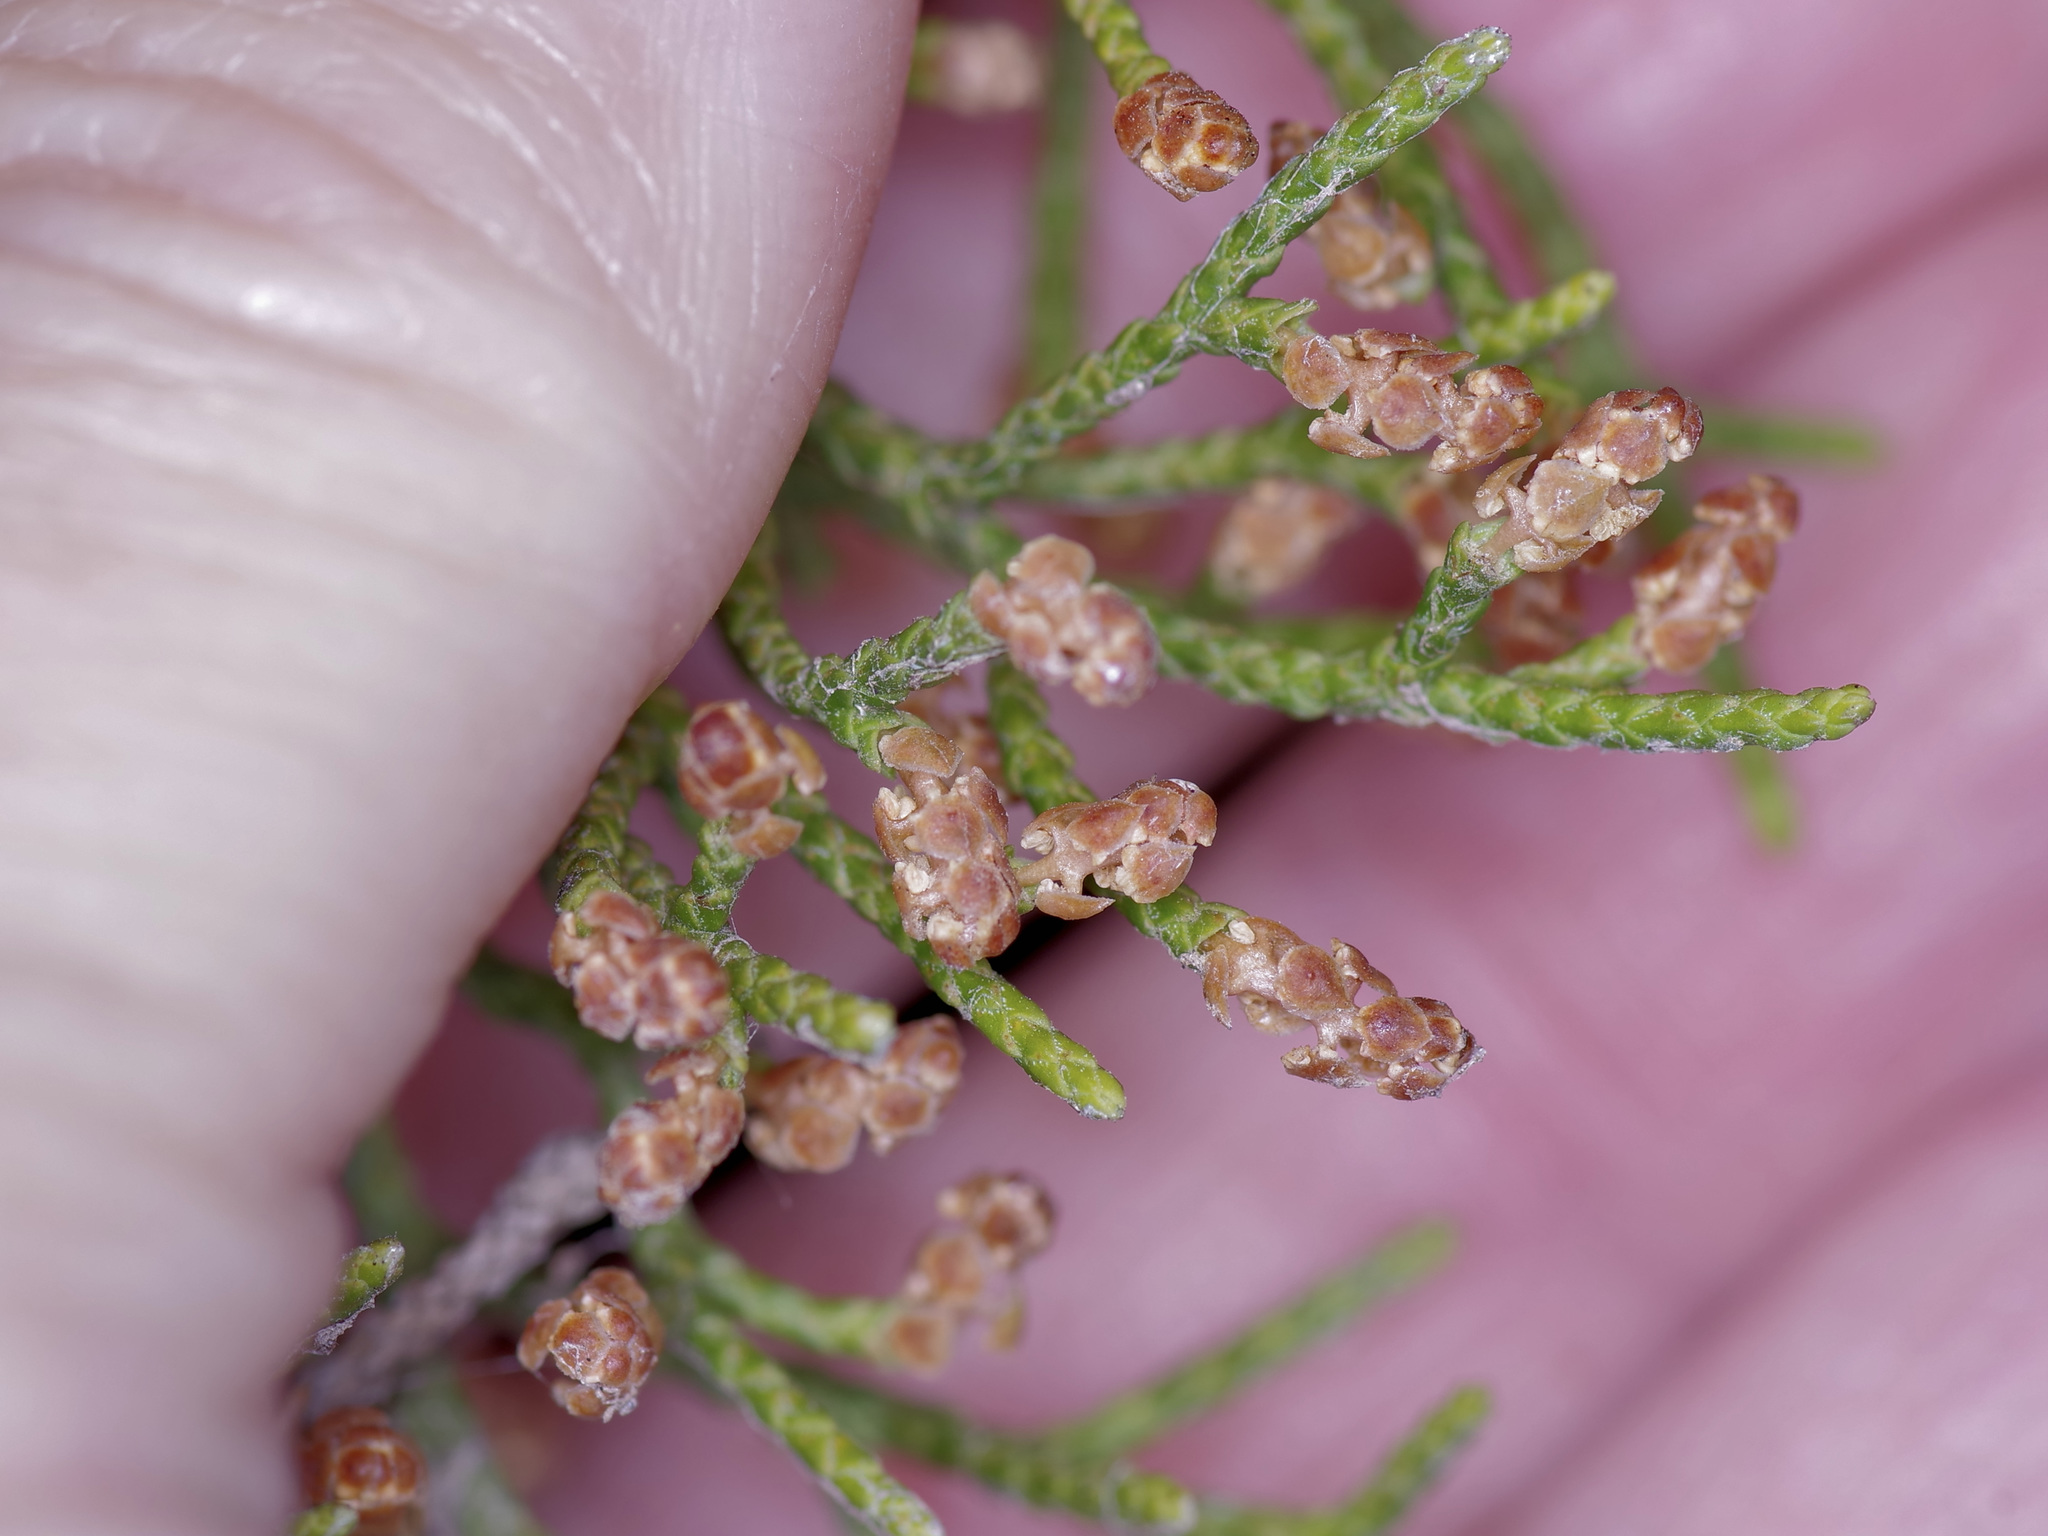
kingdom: Plantae
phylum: Tracheophyta
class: Pinopsida
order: Pinales
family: Cupressaceae
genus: Juniperus
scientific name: Juniperus ashei
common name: Mexican juniper
